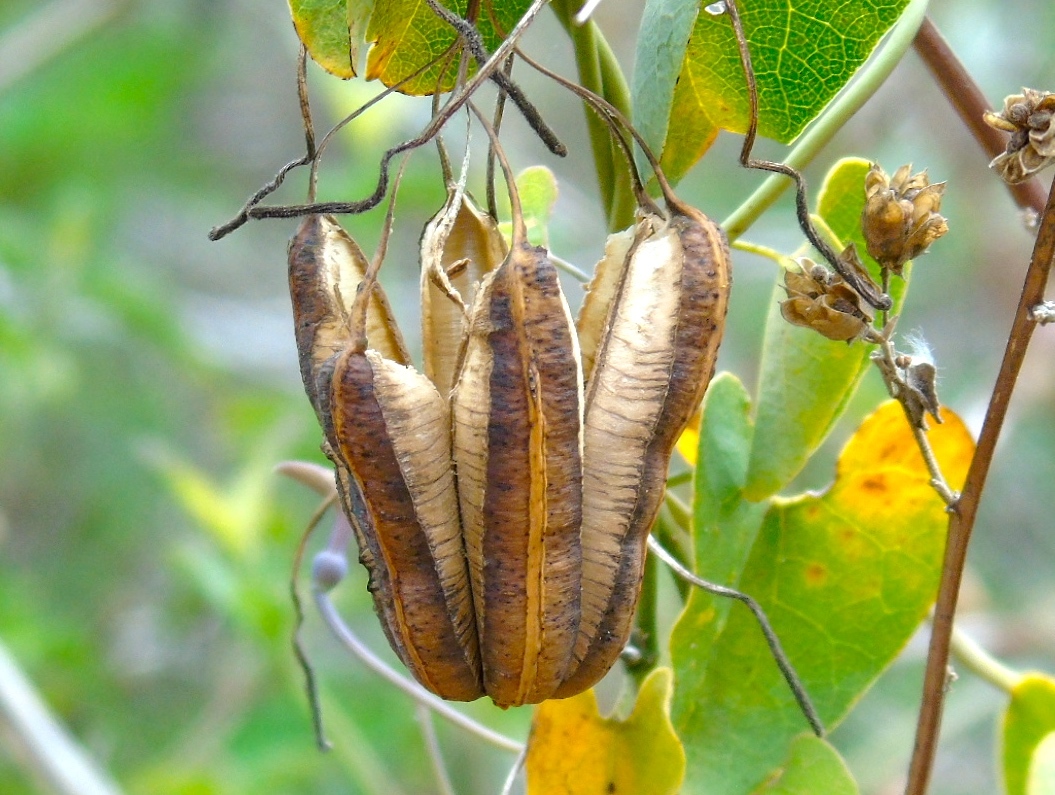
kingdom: Plantae
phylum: Tracheophyta
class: Magnoliopsida
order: Piperales
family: Aristolochiaceae
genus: Aristolochia
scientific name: Aristolochia taliscana
